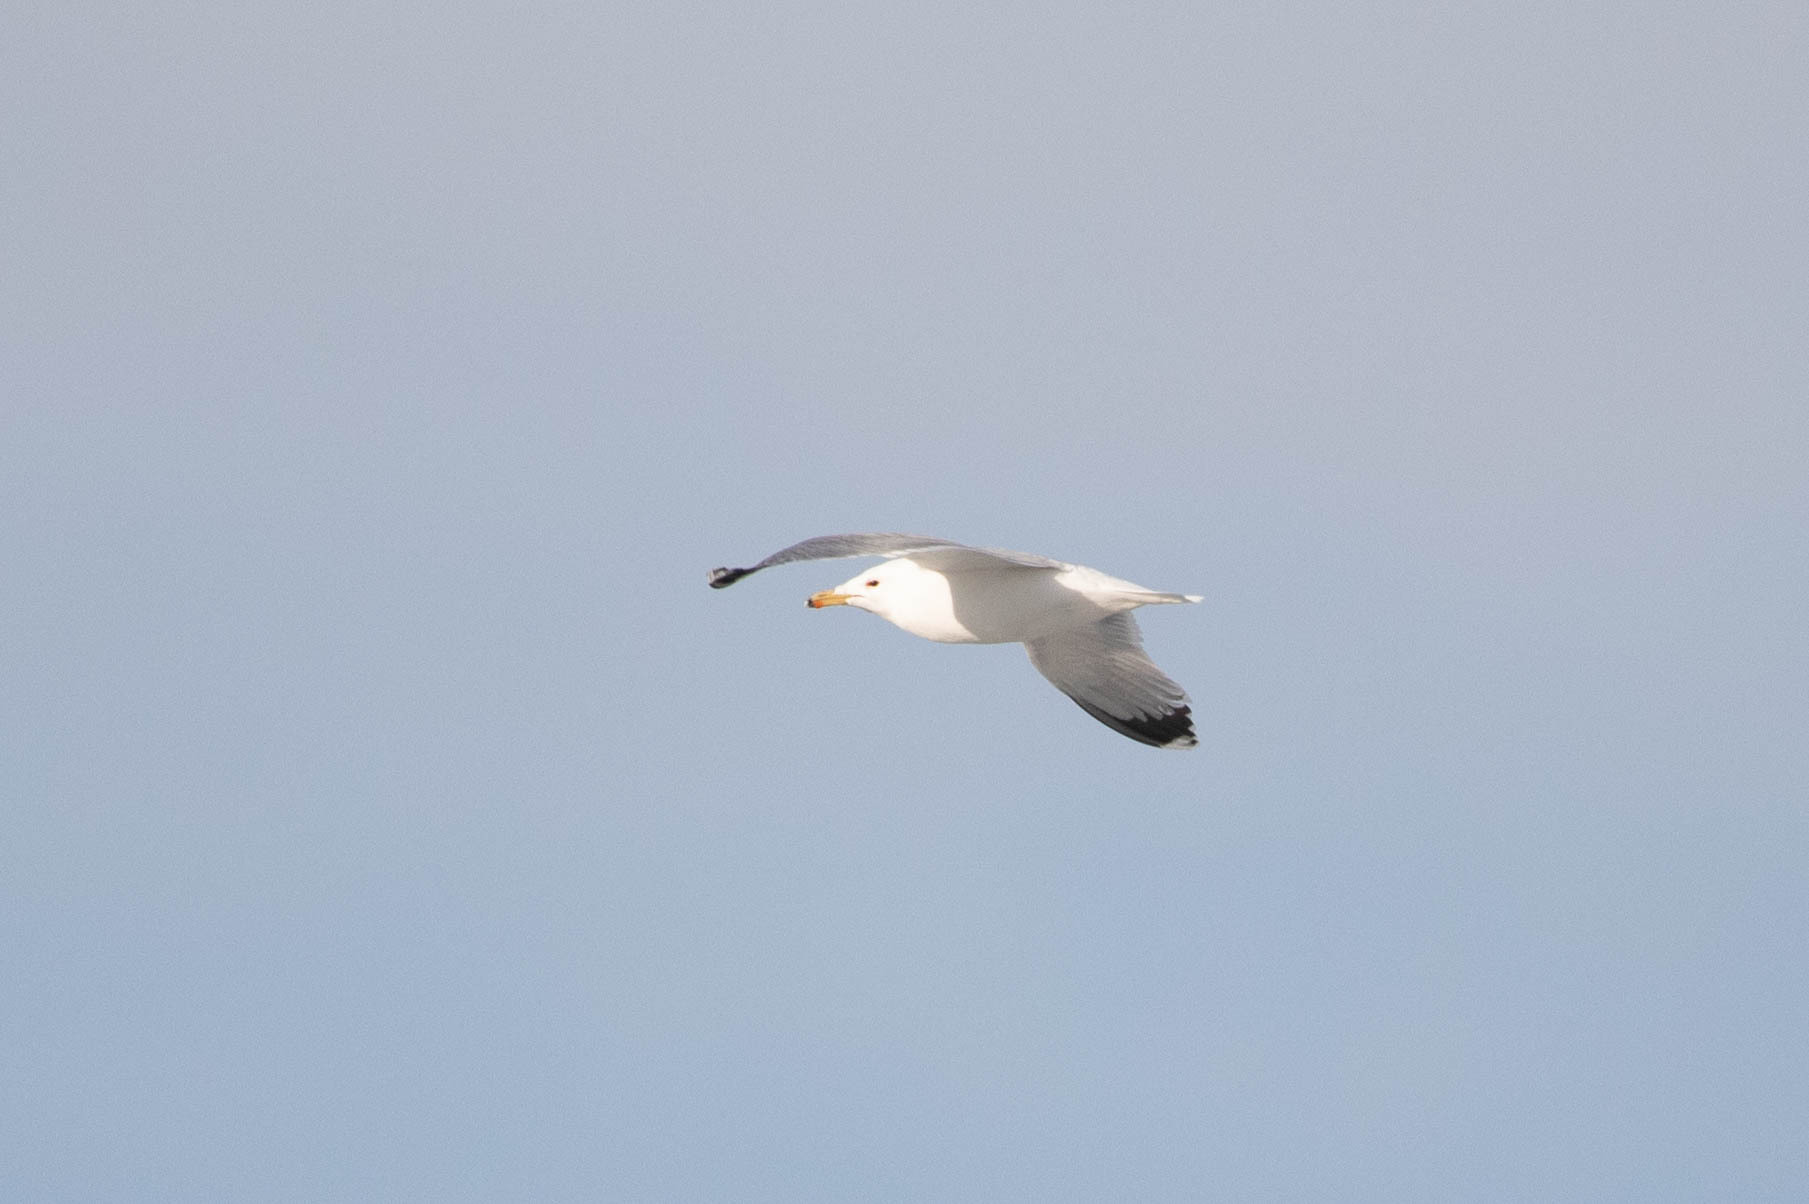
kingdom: Animalia
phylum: Chordata
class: Aves
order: Charadriiformes
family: Laridae
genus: Larus
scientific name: Larus californicus
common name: California gull
